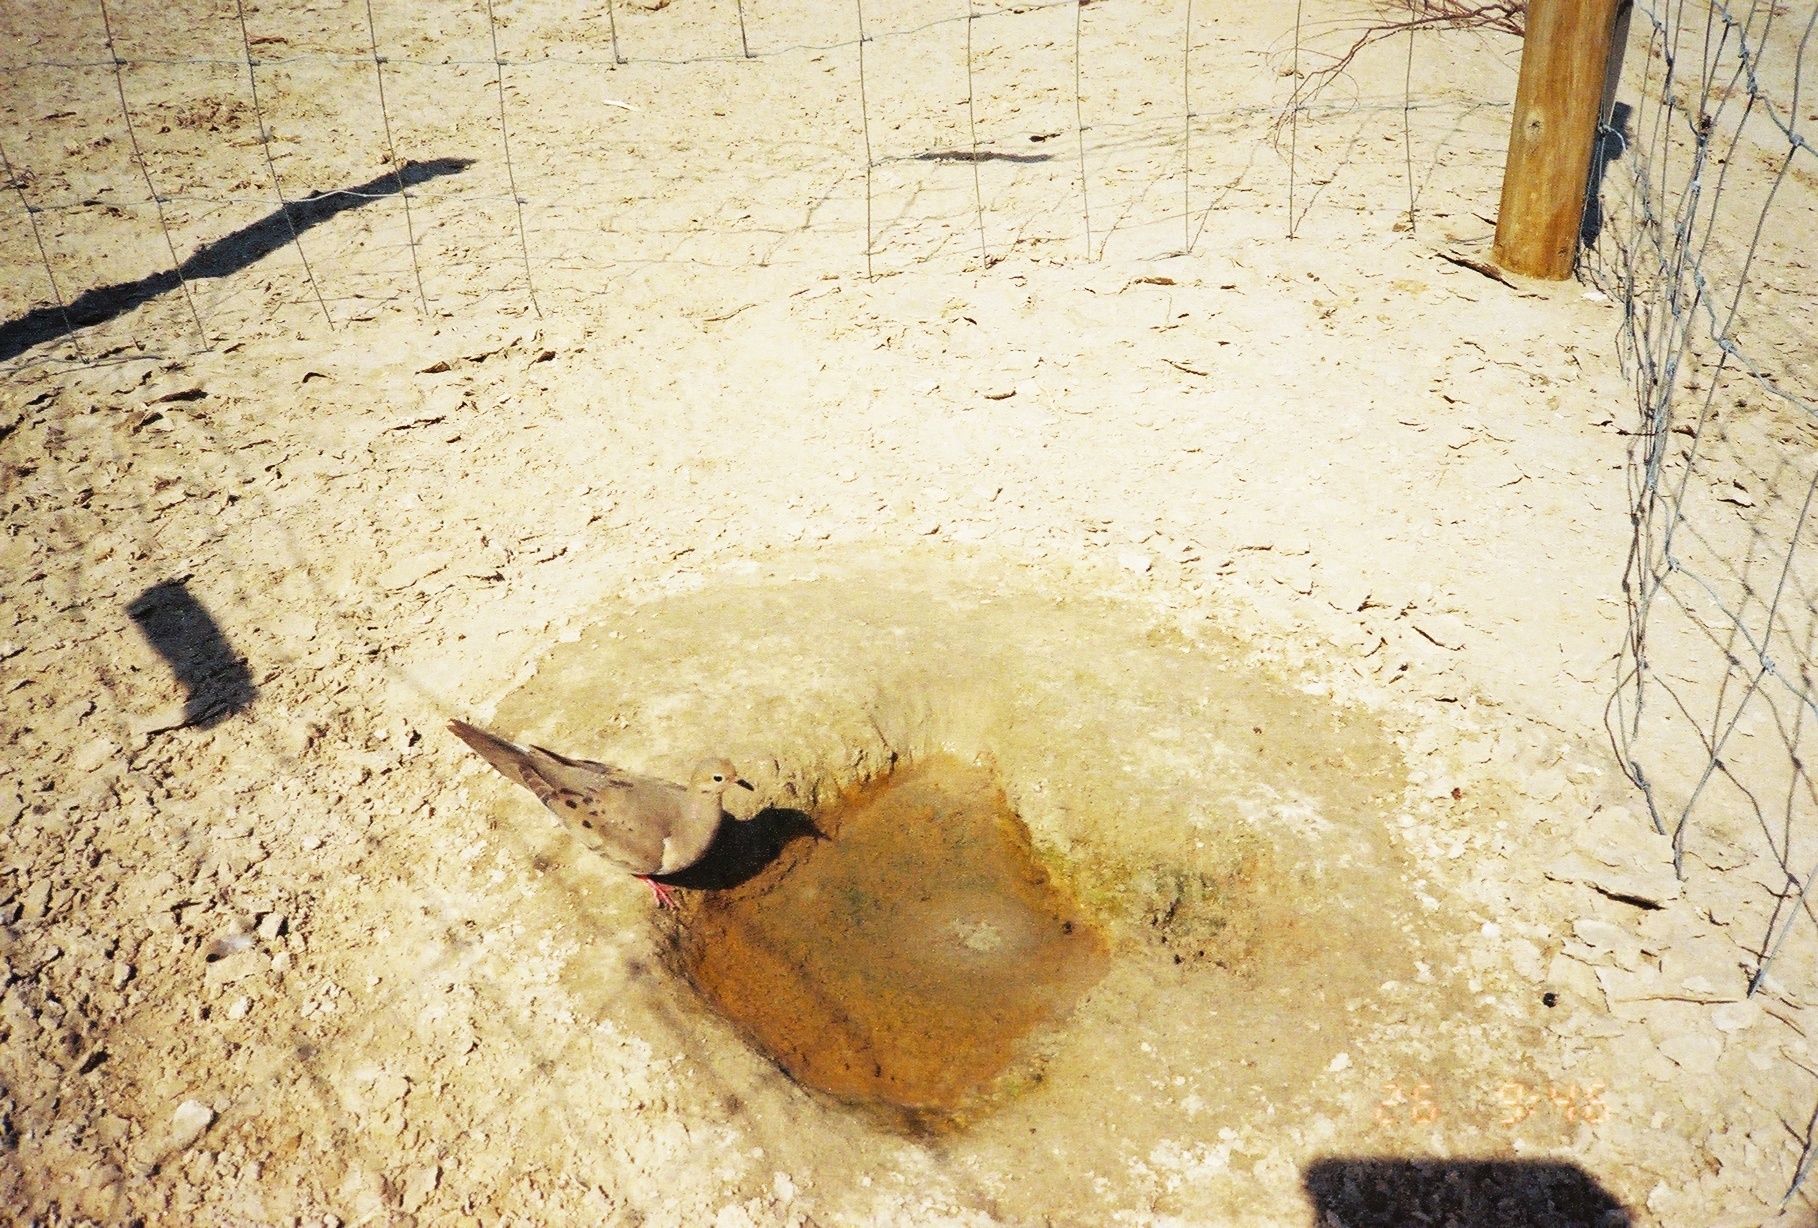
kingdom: Animalia
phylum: Chordata
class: Aves
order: Columbiformes
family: Columbidae
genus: Zenaida
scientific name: Zenaida macroura
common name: Mourning dove
